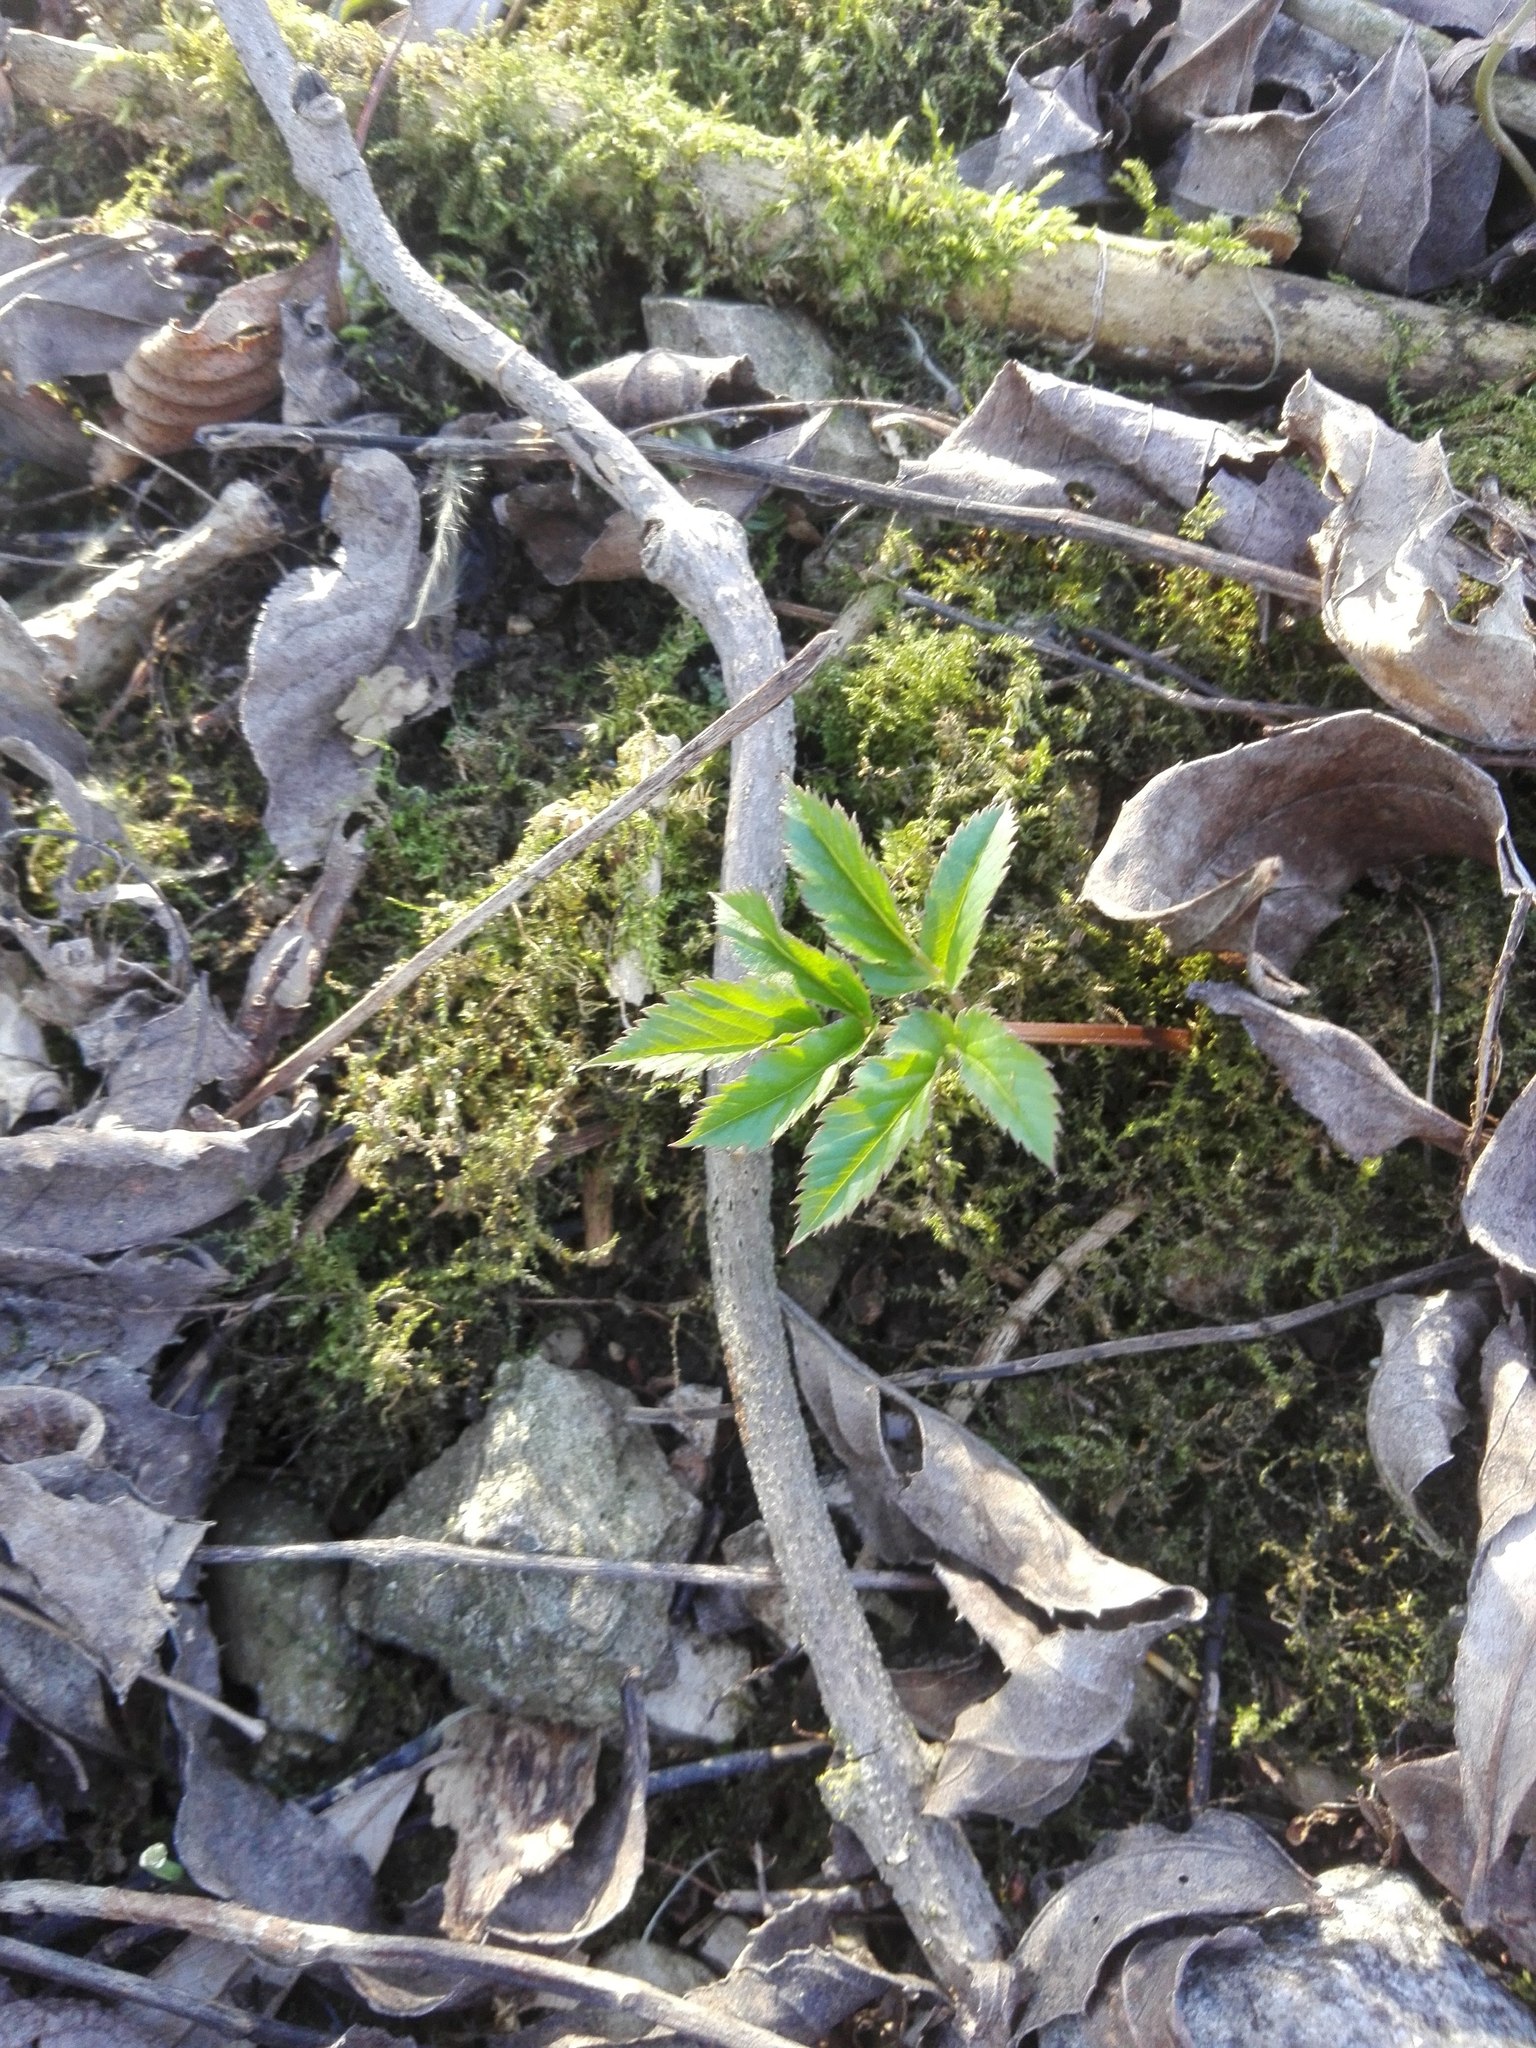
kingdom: Plantae
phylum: Tracheophyta
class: Magnoliopsida
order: Apiales
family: Apiaceae
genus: Aegopodium
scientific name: Aegopodium podagraria
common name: Ground-elder
